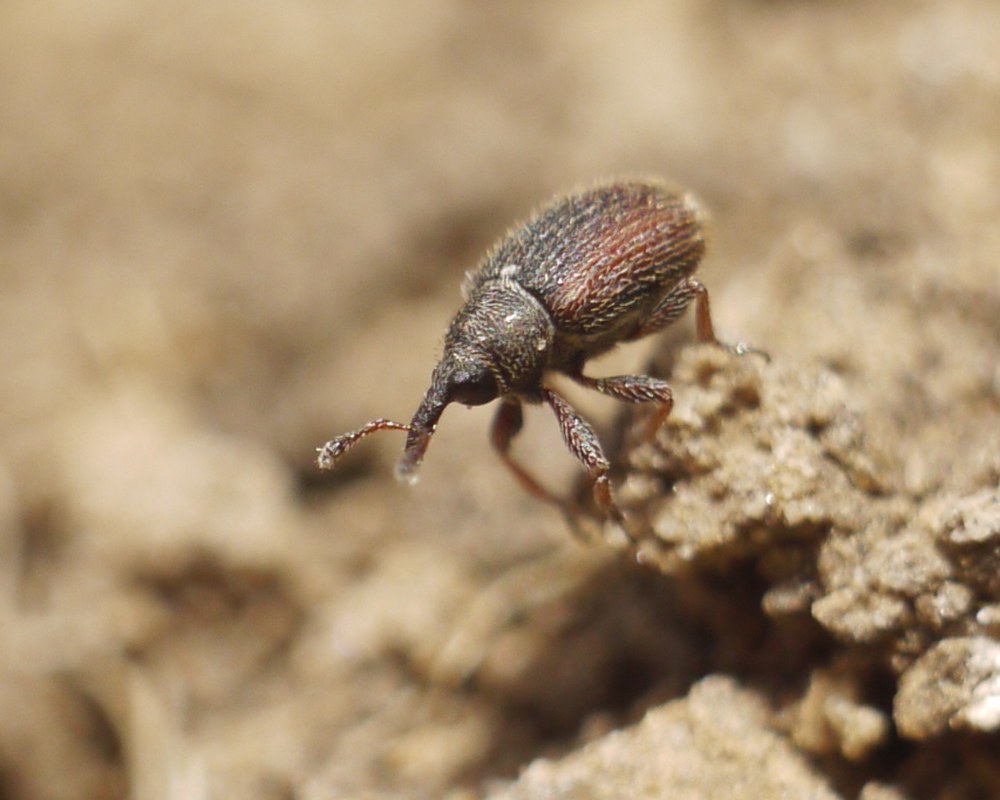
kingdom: Animalia
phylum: Arthropoda
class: Insecta
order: Coleoptera
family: Curculionidae
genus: Gymnetron
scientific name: Gymnetron rotundicolle
